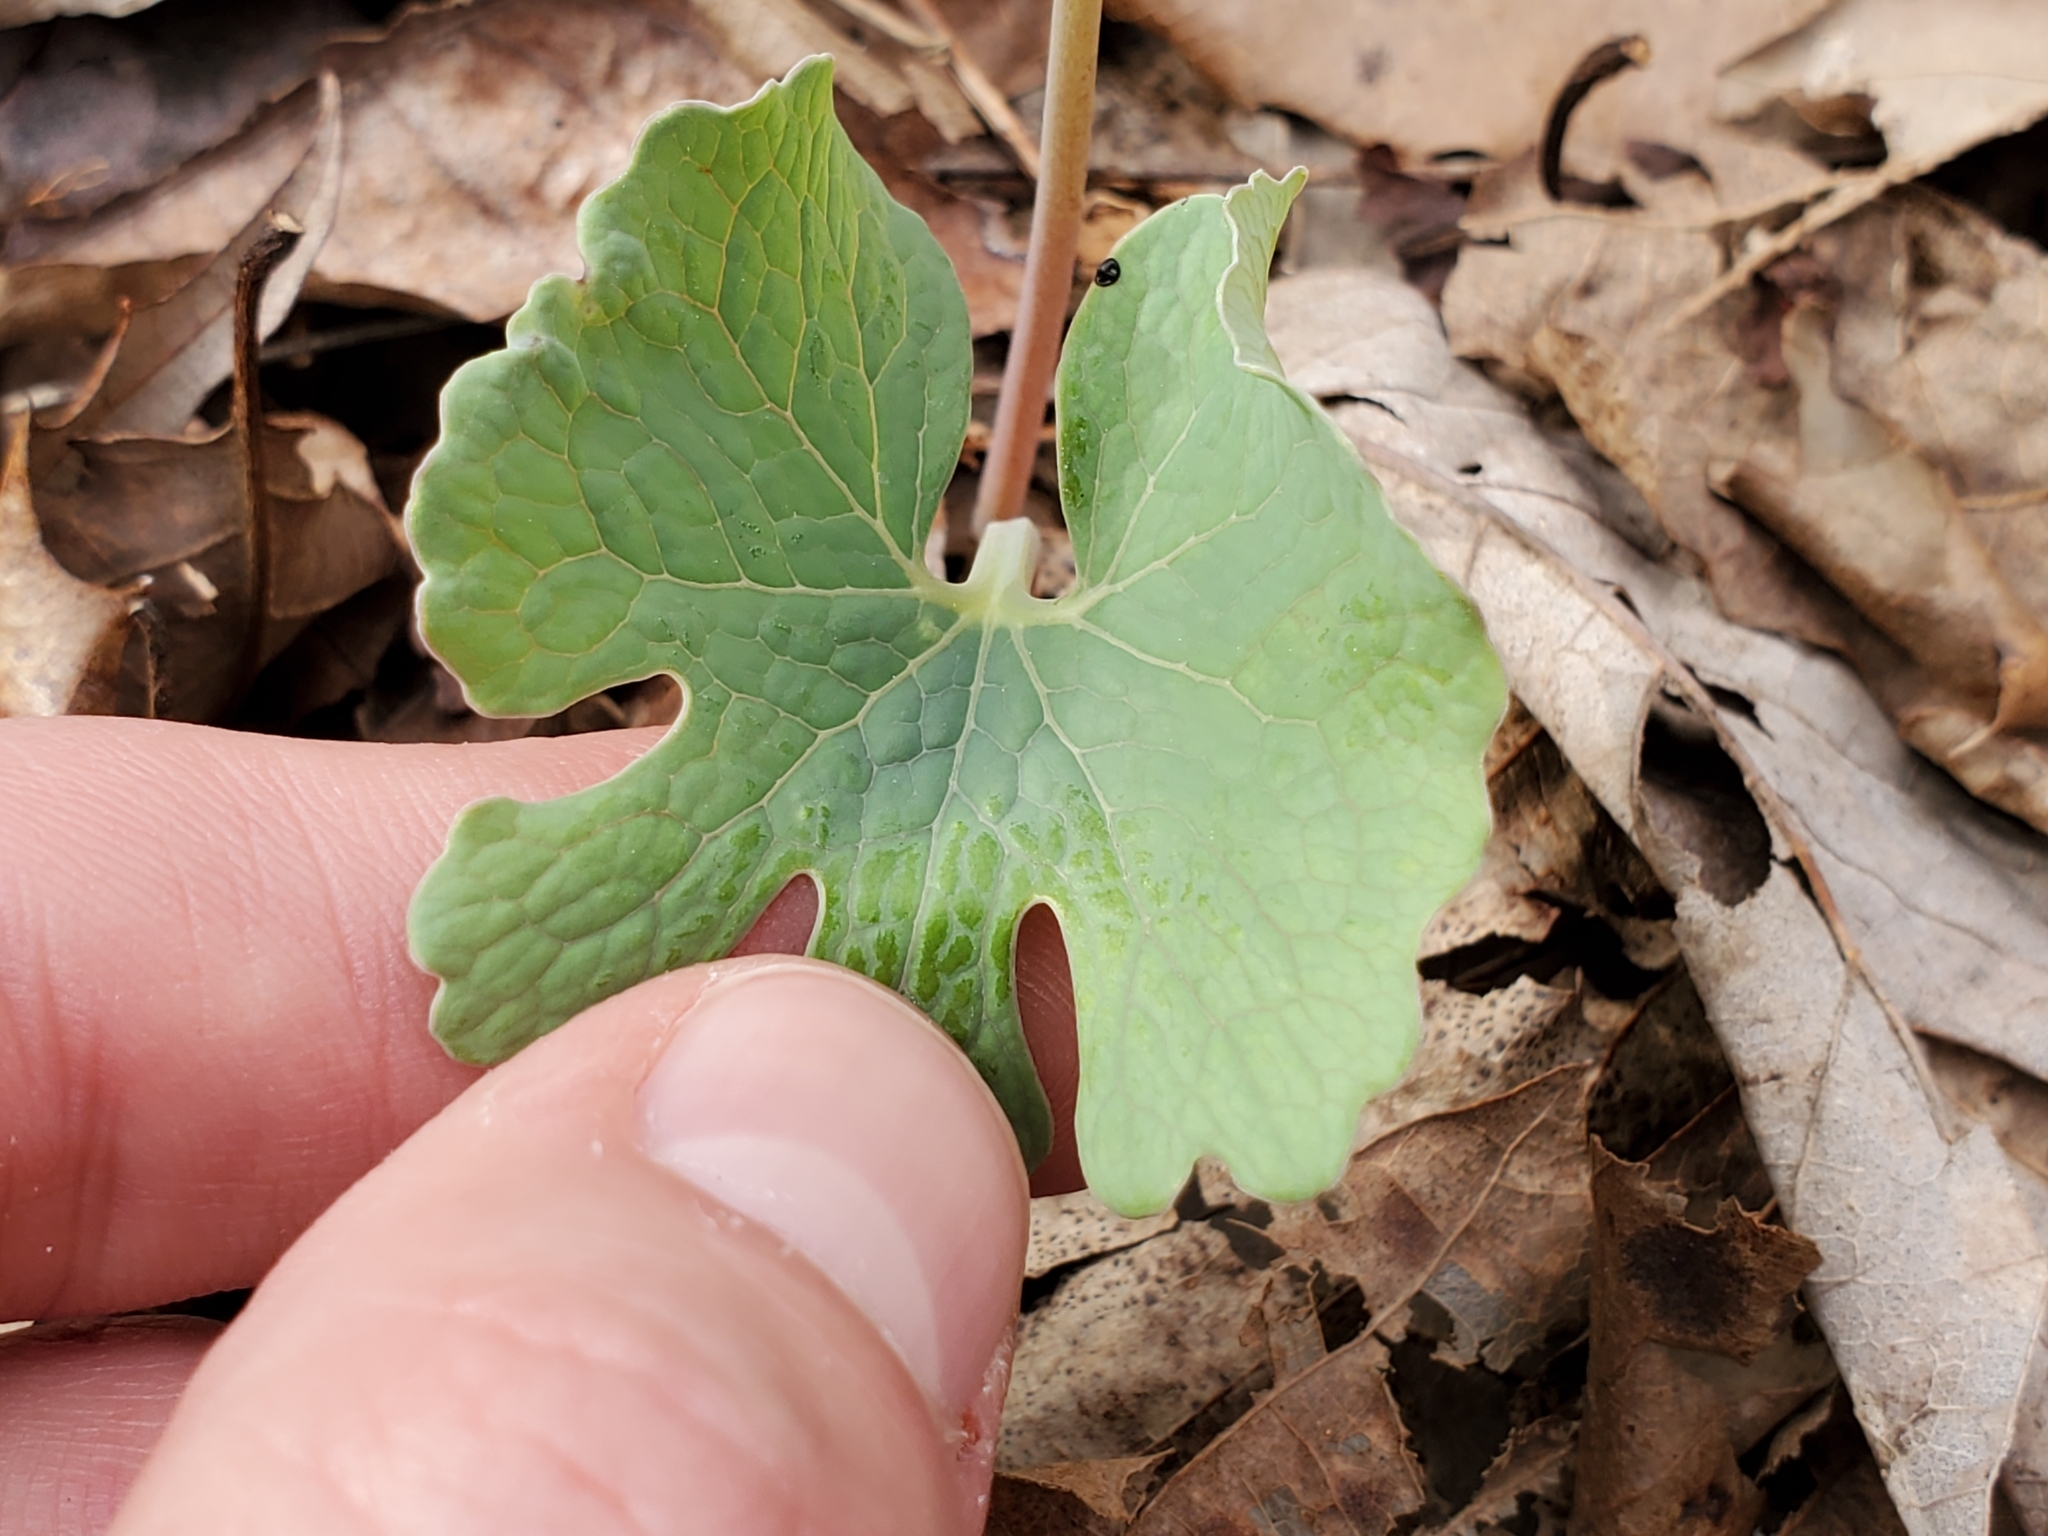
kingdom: Plantae
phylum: Tracheophyta
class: Magnoliopsida
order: Ranunculales
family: Papaveraceae
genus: Sanguinaria
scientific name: Sanguinaria canadensis
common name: Bloodroot
